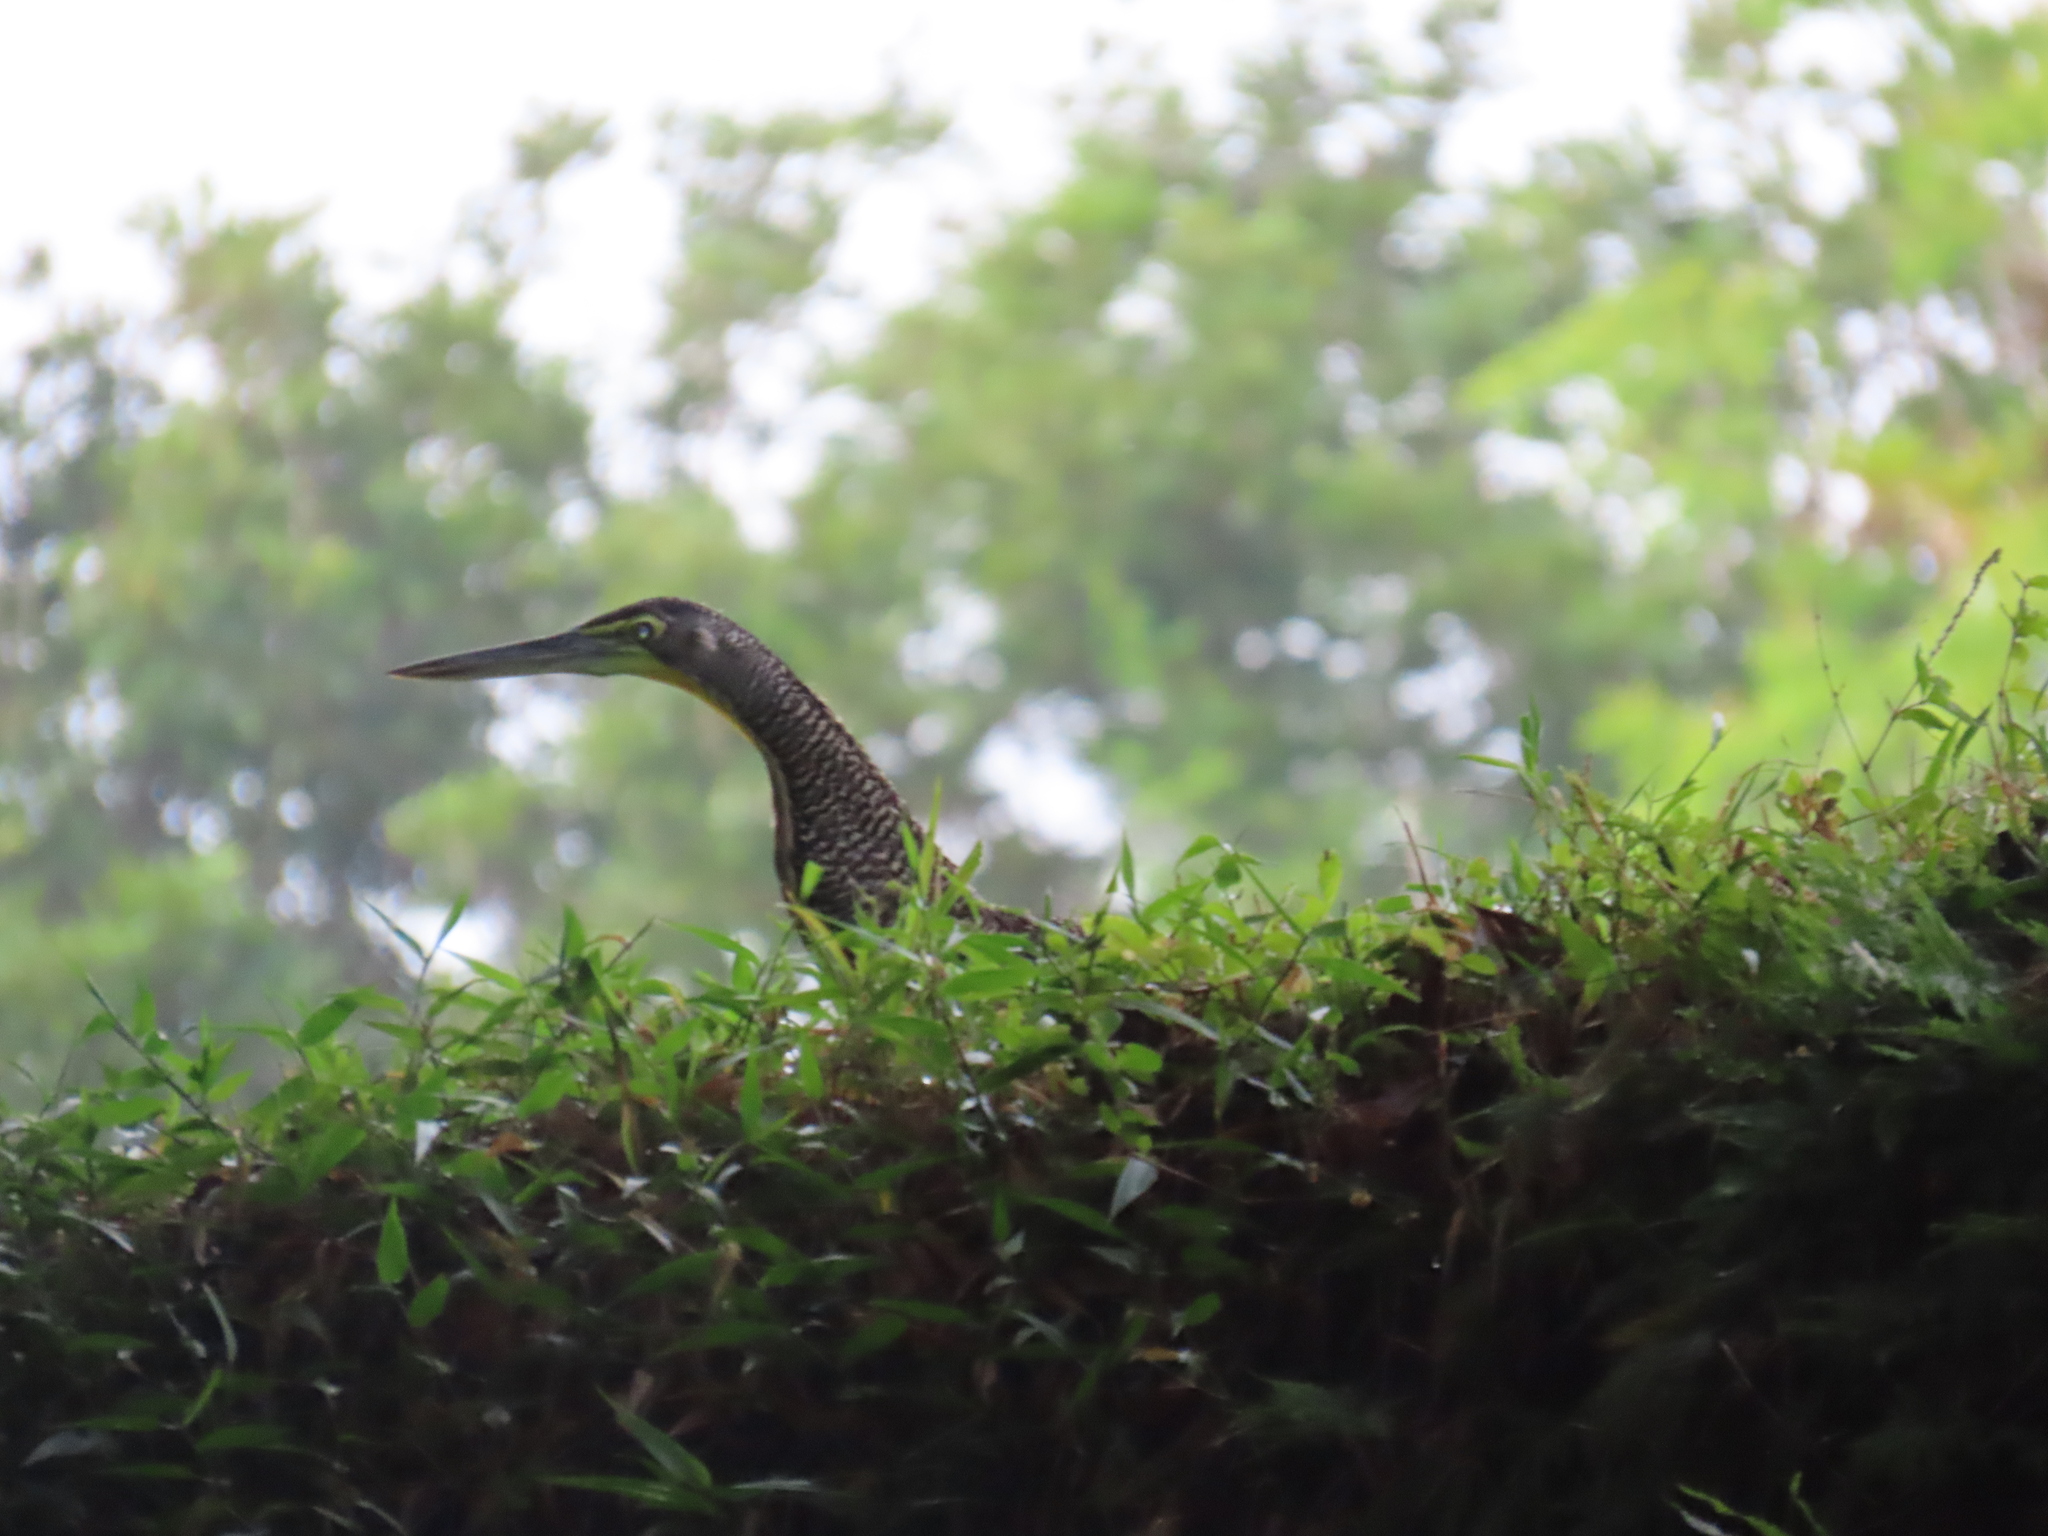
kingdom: Animalia
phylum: Chordata
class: Aves
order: Pelecaniformes
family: Ardeidae
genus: Tigrisoma
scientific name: Tigrisoma mexicanum
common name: Bare-throated tiger-heron
